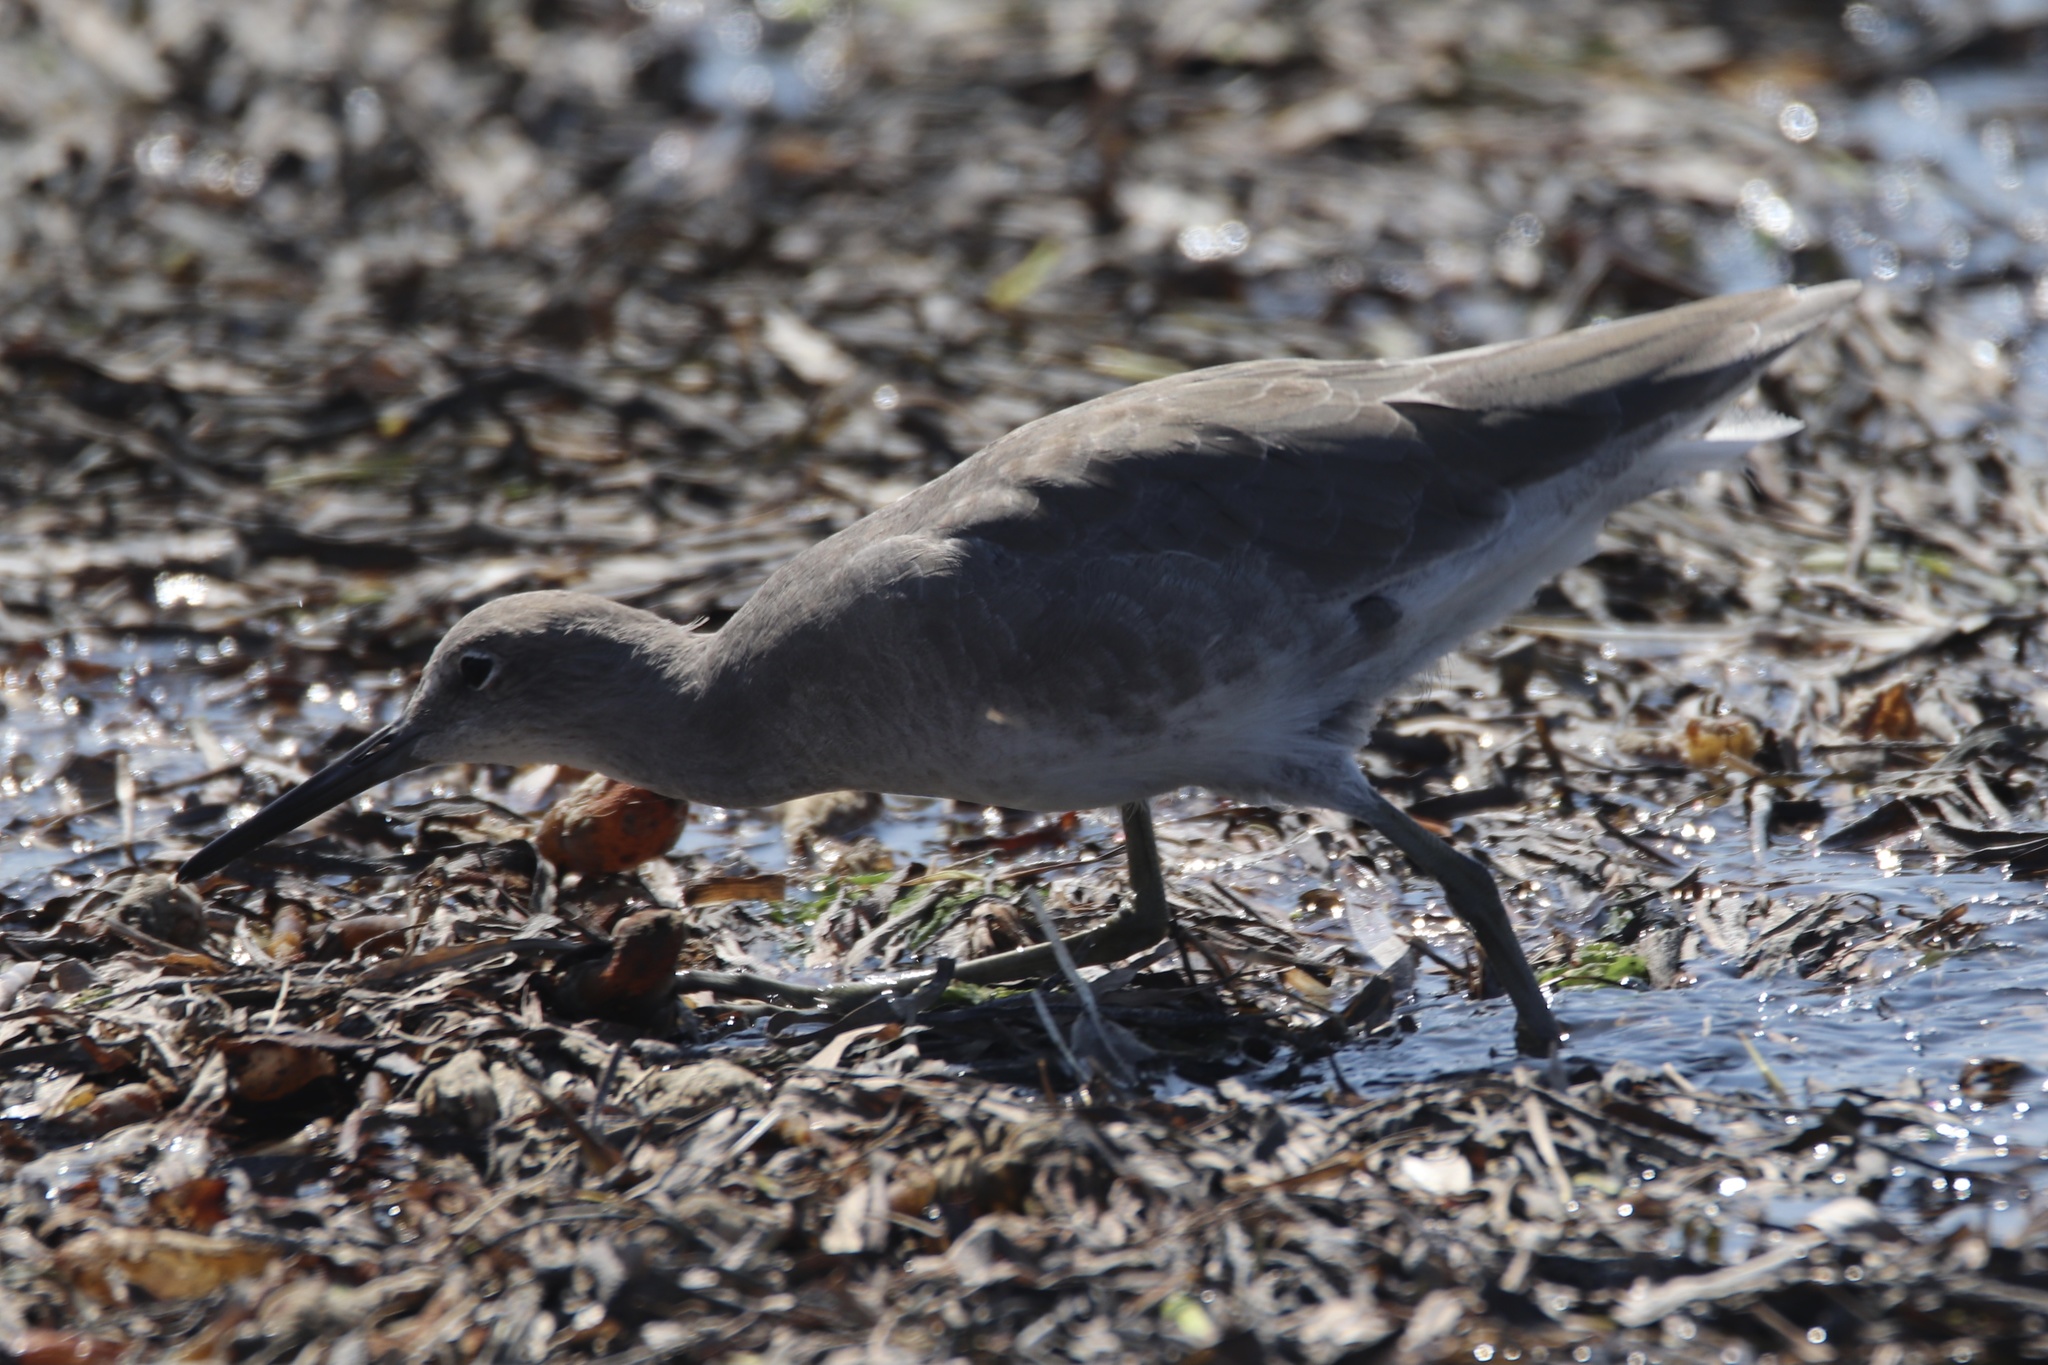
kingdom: Animalia
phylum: Chordata
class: Aves
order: Charadriiformes
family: Scolopacidae
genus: Tringa
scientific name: Tringa semipalmata
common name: Willet
